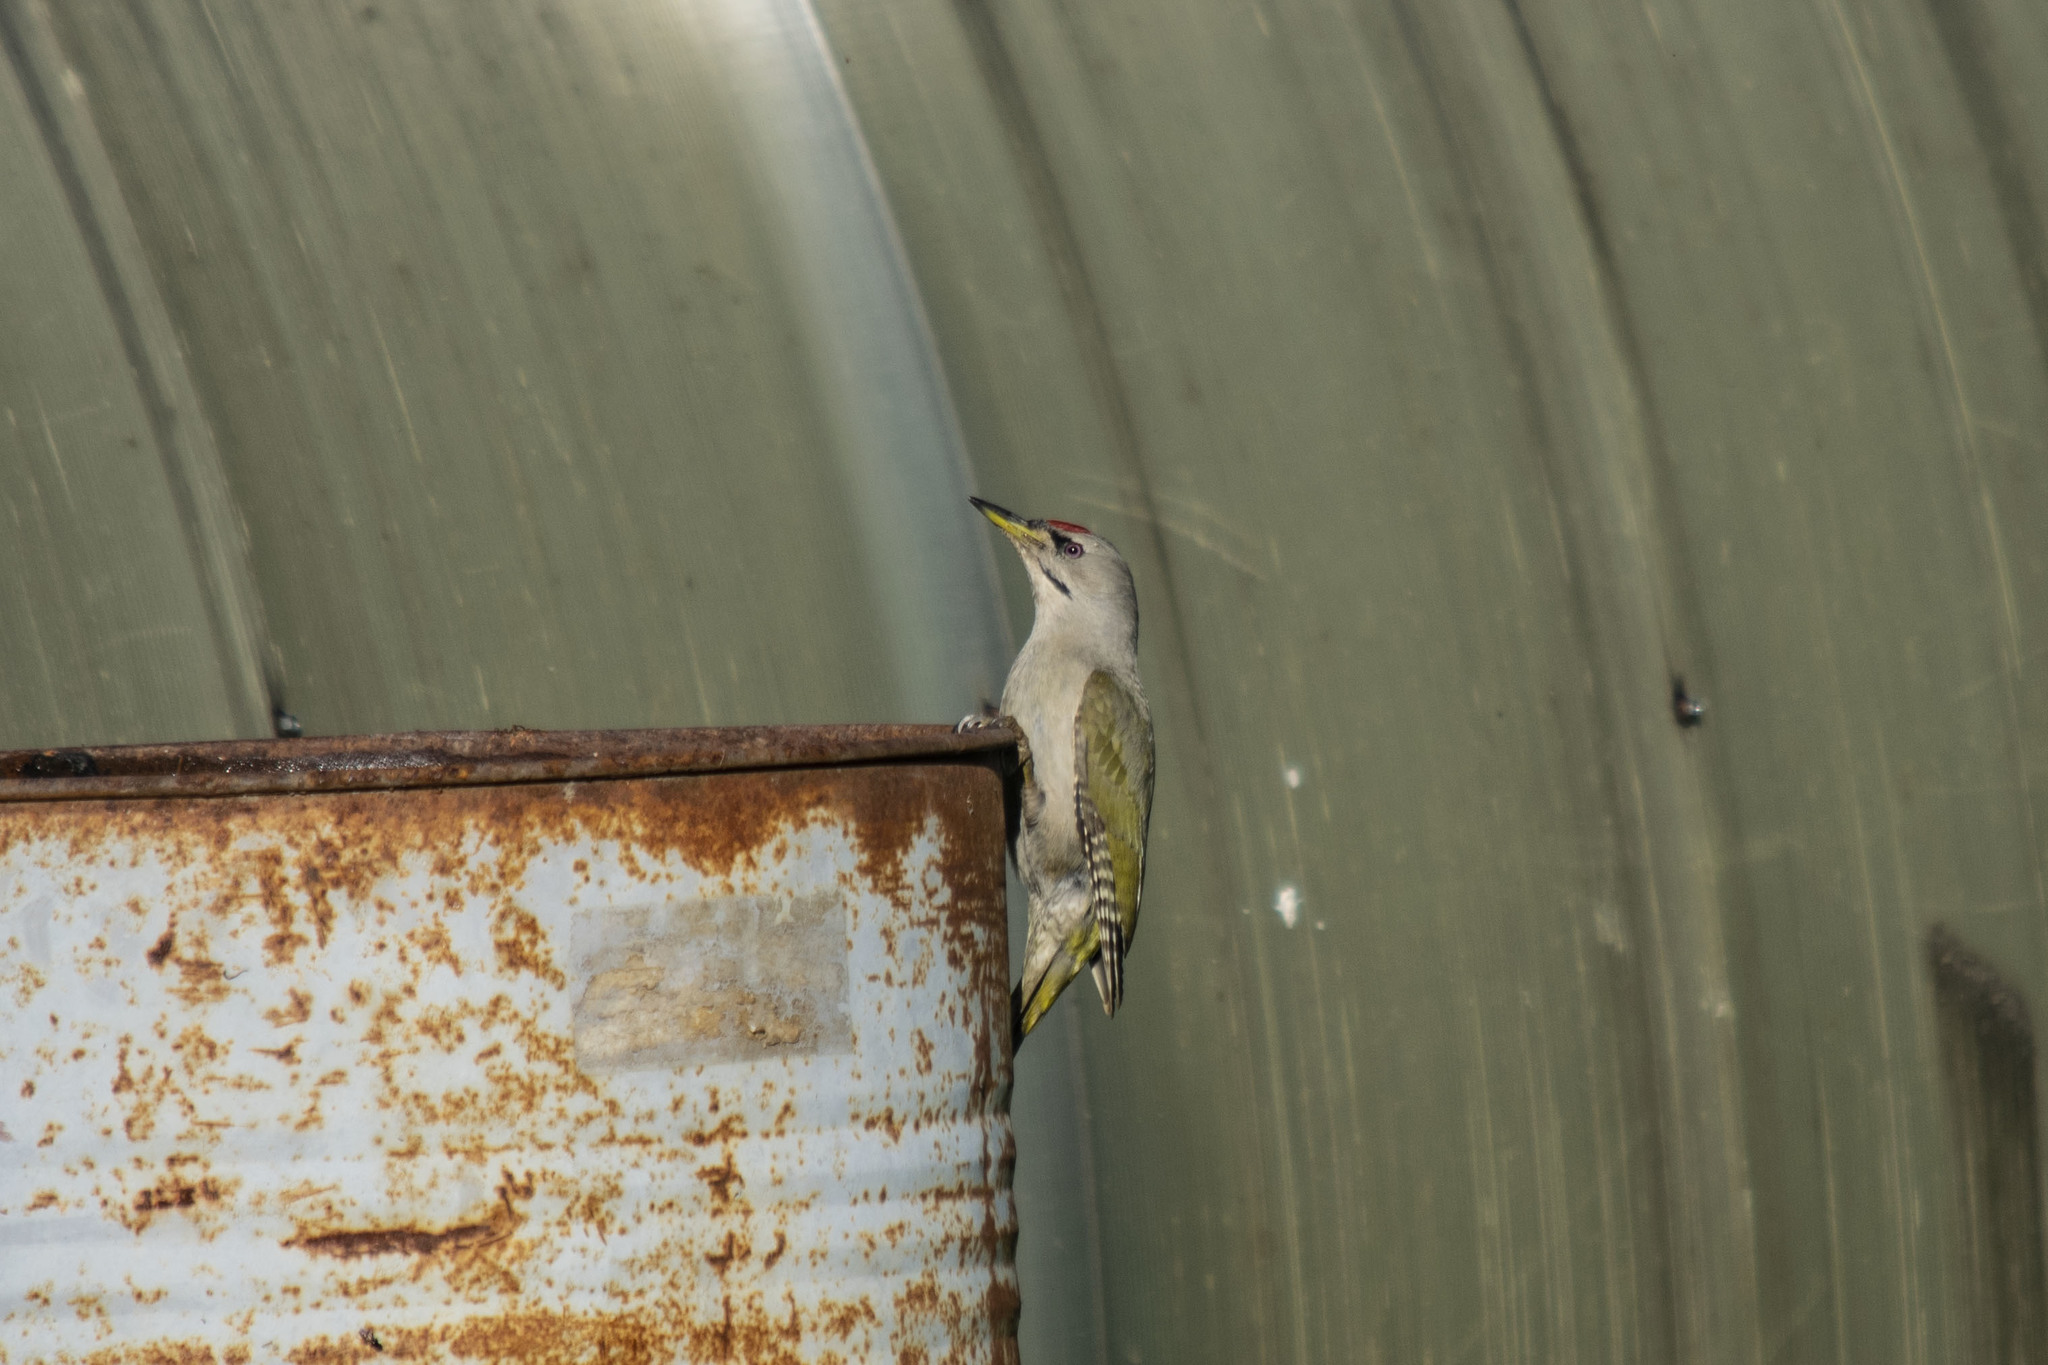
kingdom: Animalia
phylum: Chordata
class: Aves
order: Piciformes
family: Picidae
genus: Picus
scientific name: Picus canus
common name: Grey-headed woodpecker
